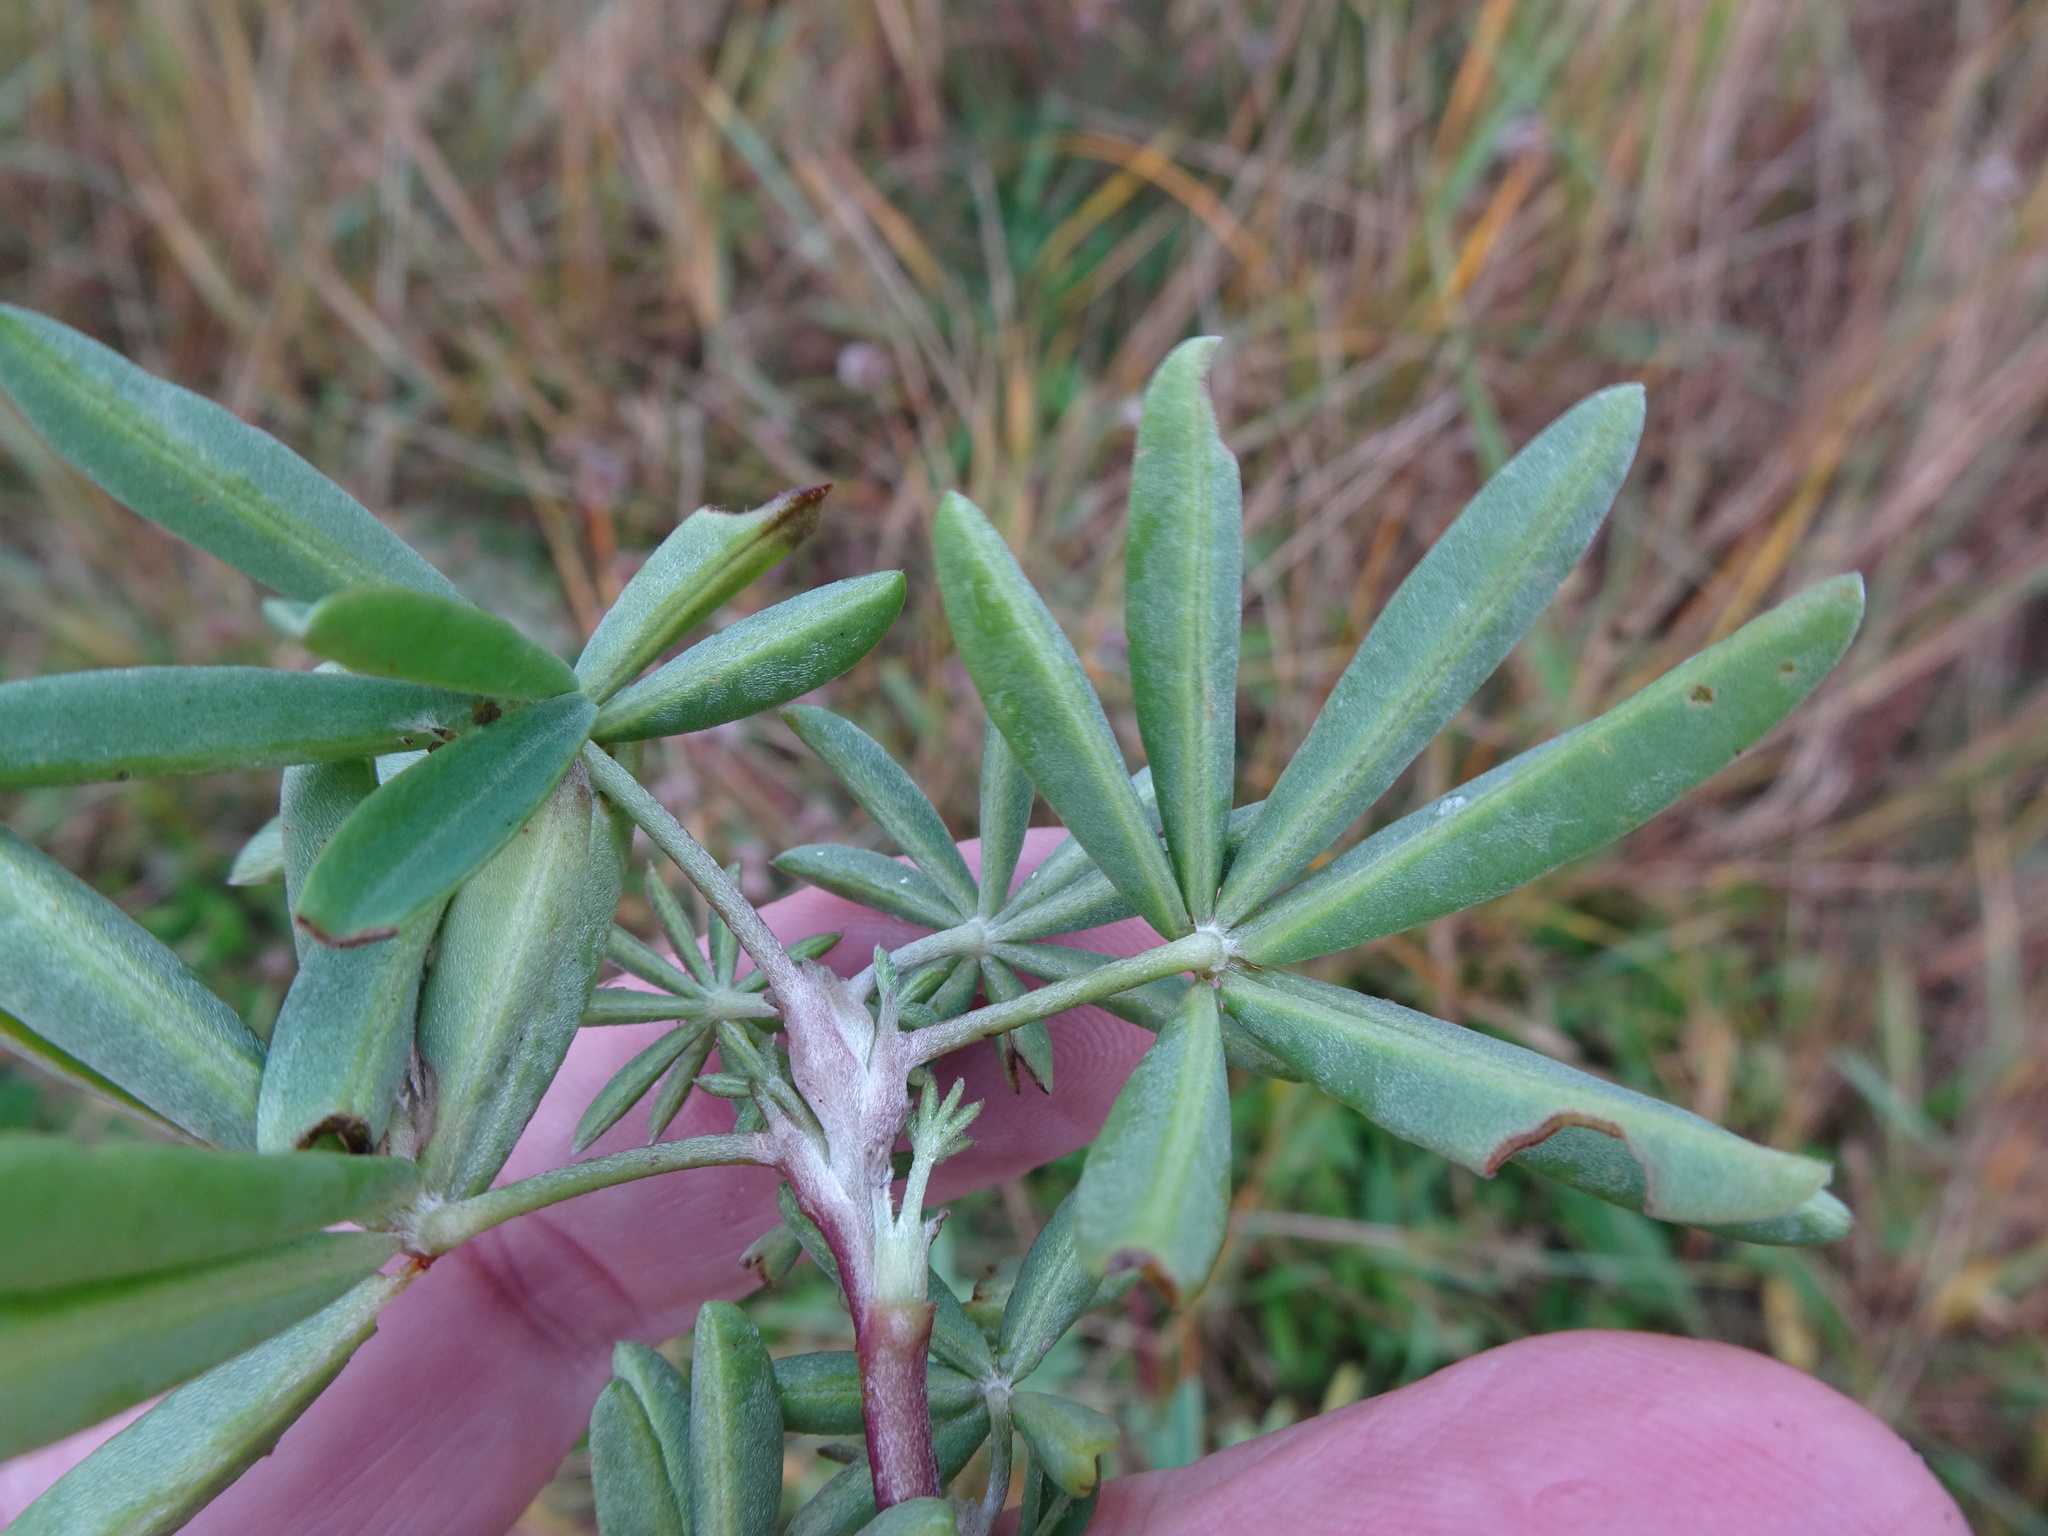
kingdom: Plantae
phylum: Tracheophyta
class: Magnoliopsida
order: Fabales
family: Fabaceae
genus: Lupinus
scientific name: Lupinus arboreus
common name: Yellow bush lupine
